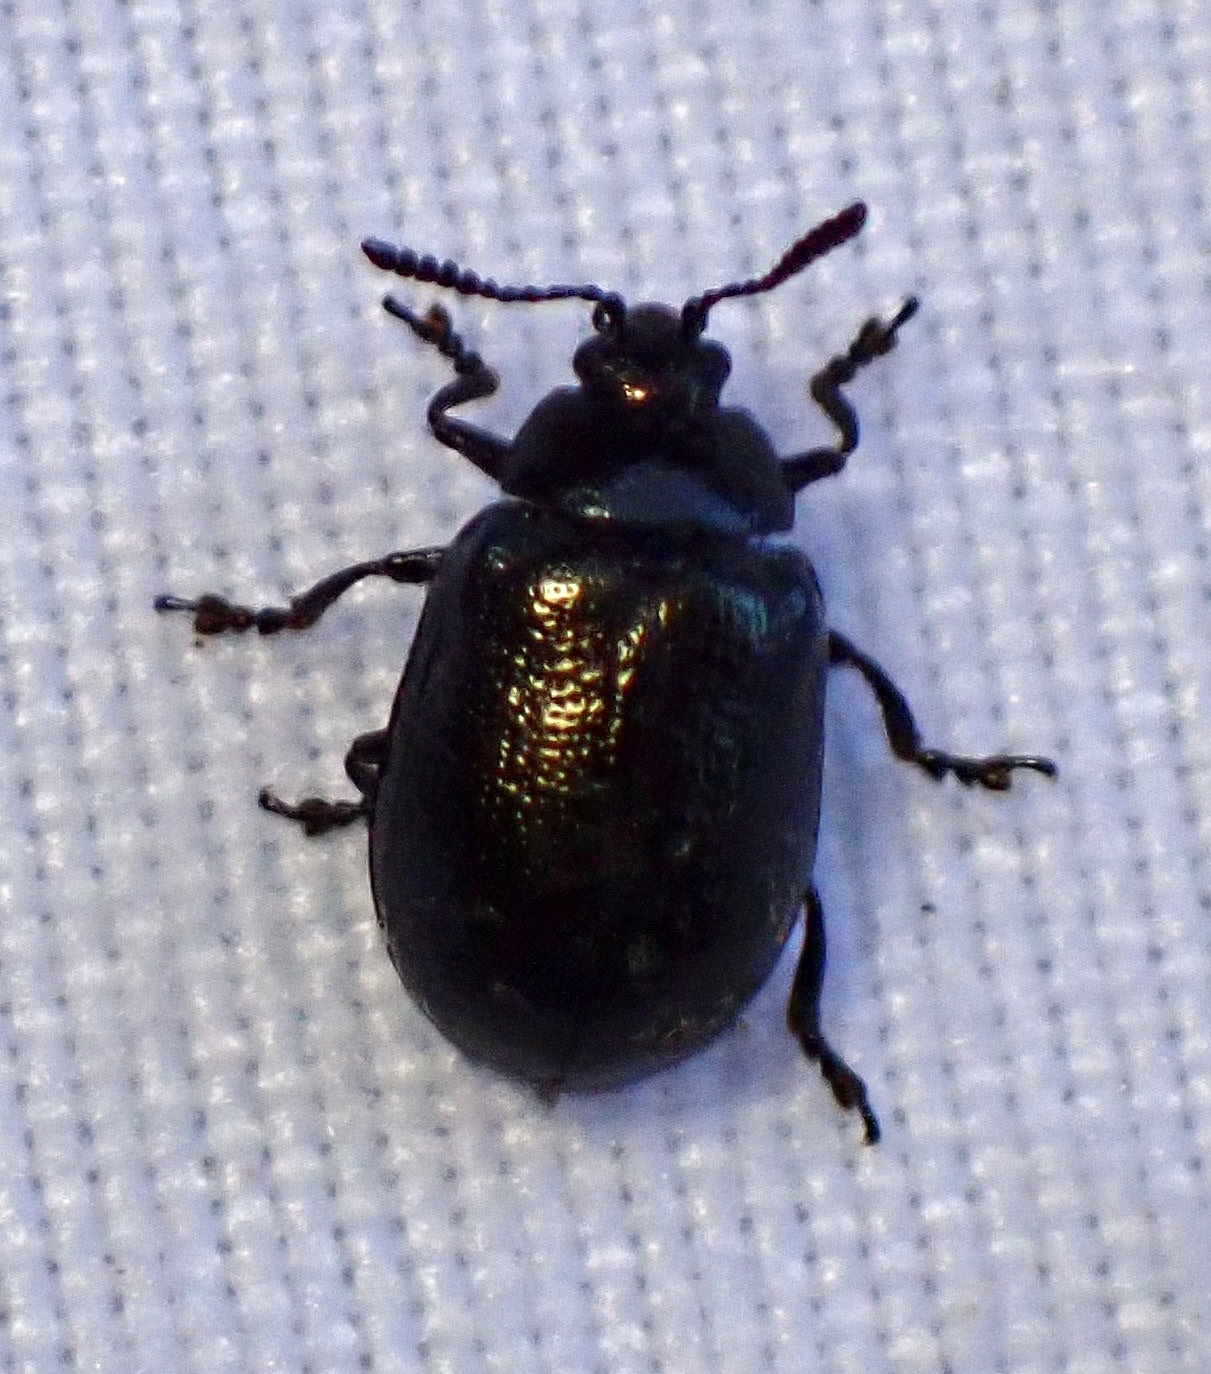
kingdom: Animalia
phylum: Arthropoda
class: Insecta
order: Coleoptera
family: Chrysomelidae
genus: Plagiodera
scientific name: Plagiodera californica
